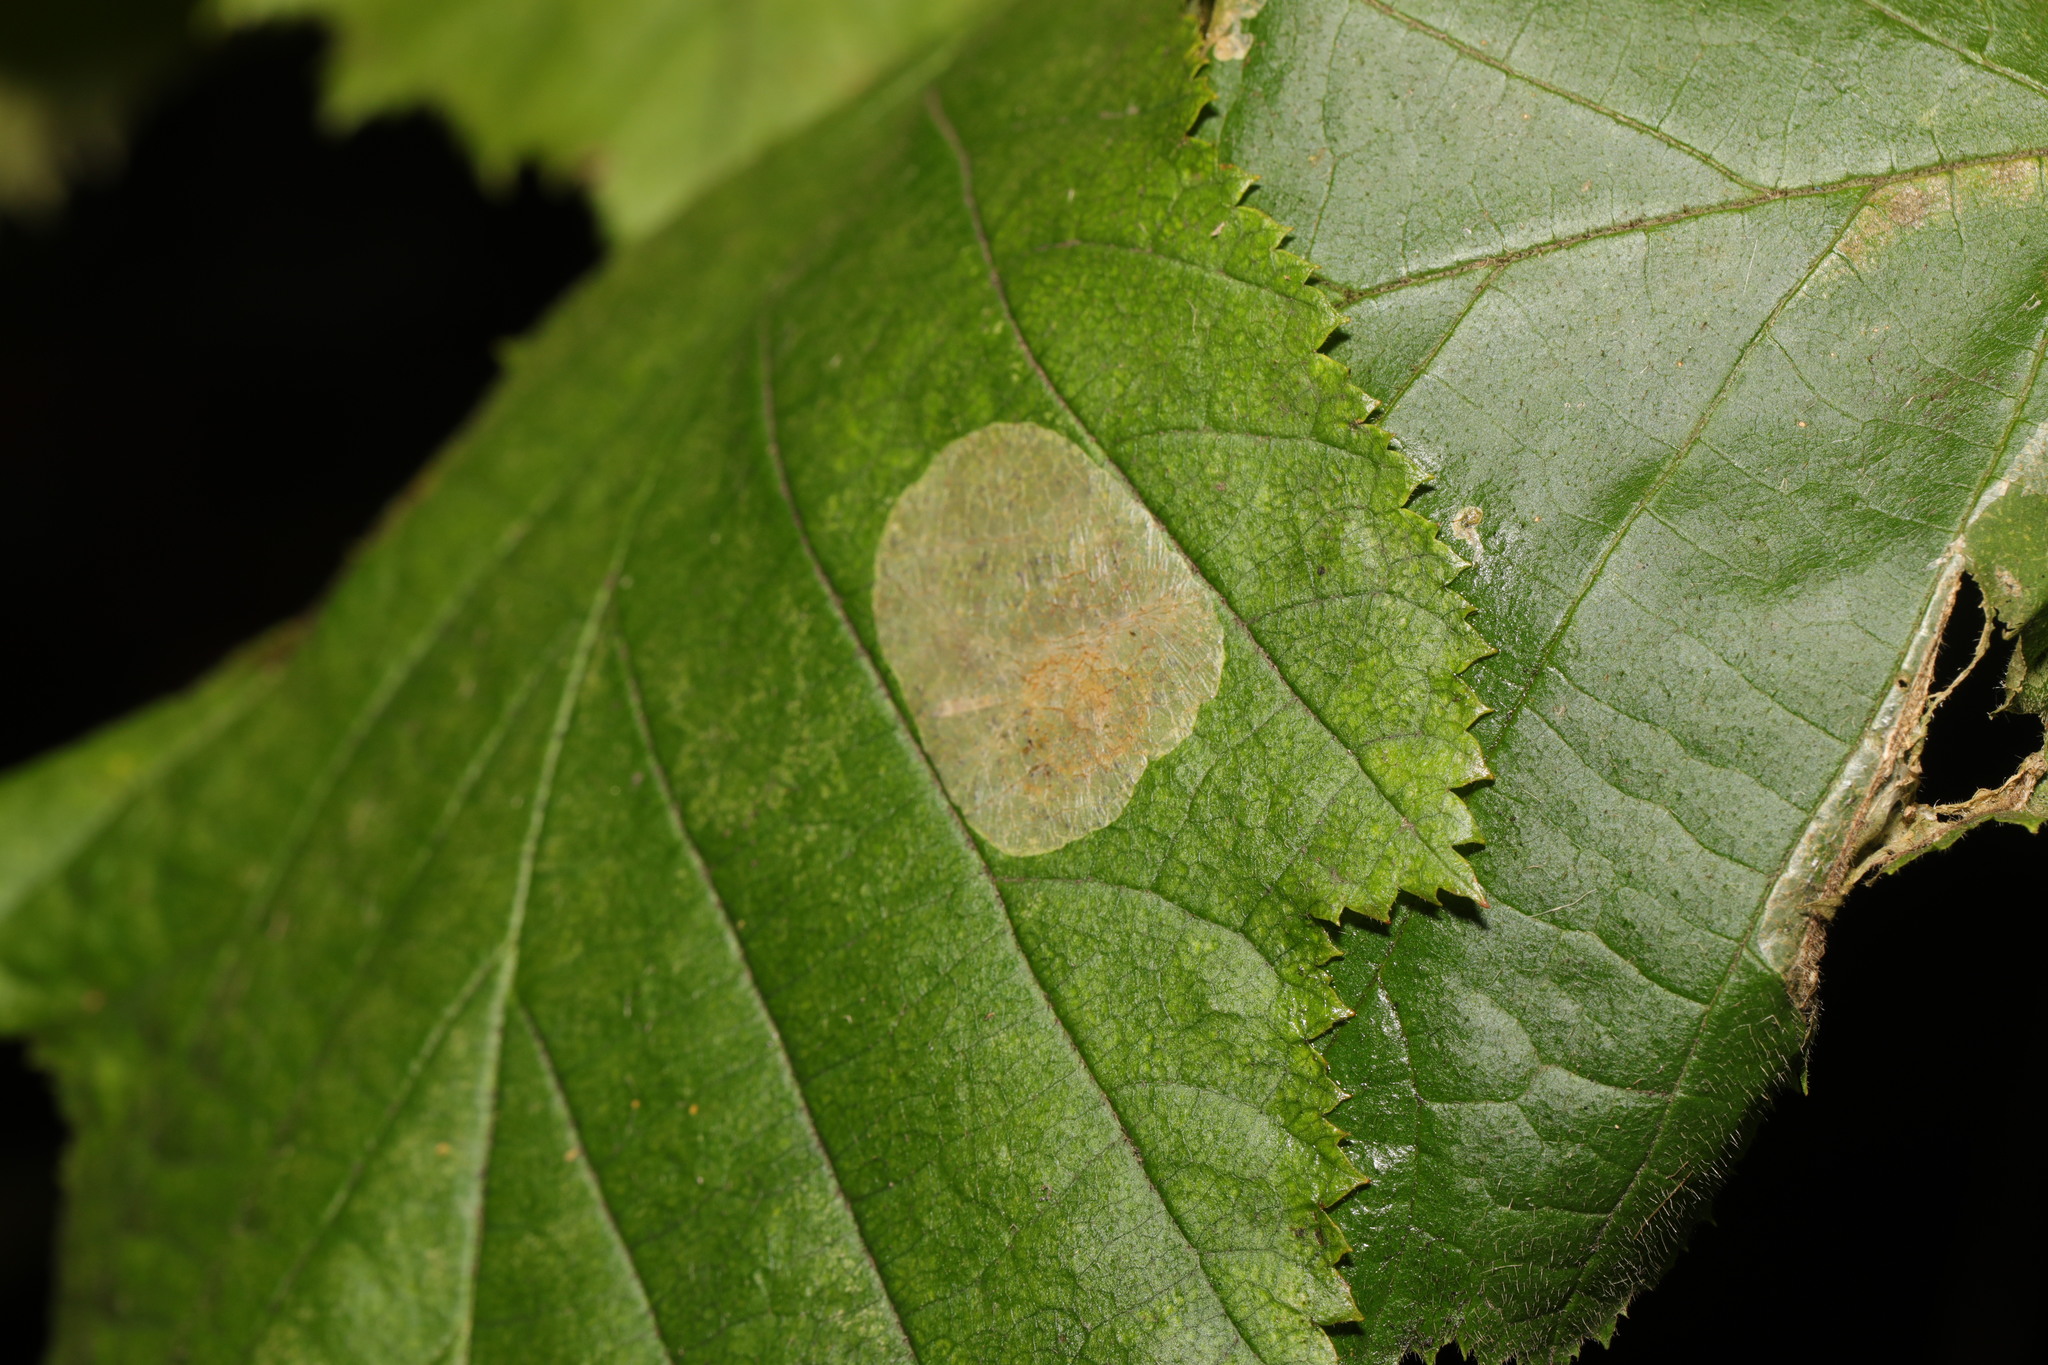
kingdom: Animalia
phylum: Arthropoda
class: Insecta
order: Lepidoptera
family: Gracillariidae
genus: Phyllonorycter
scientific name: Phyllonorycter coryli
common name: Nut-leaf blister moth
